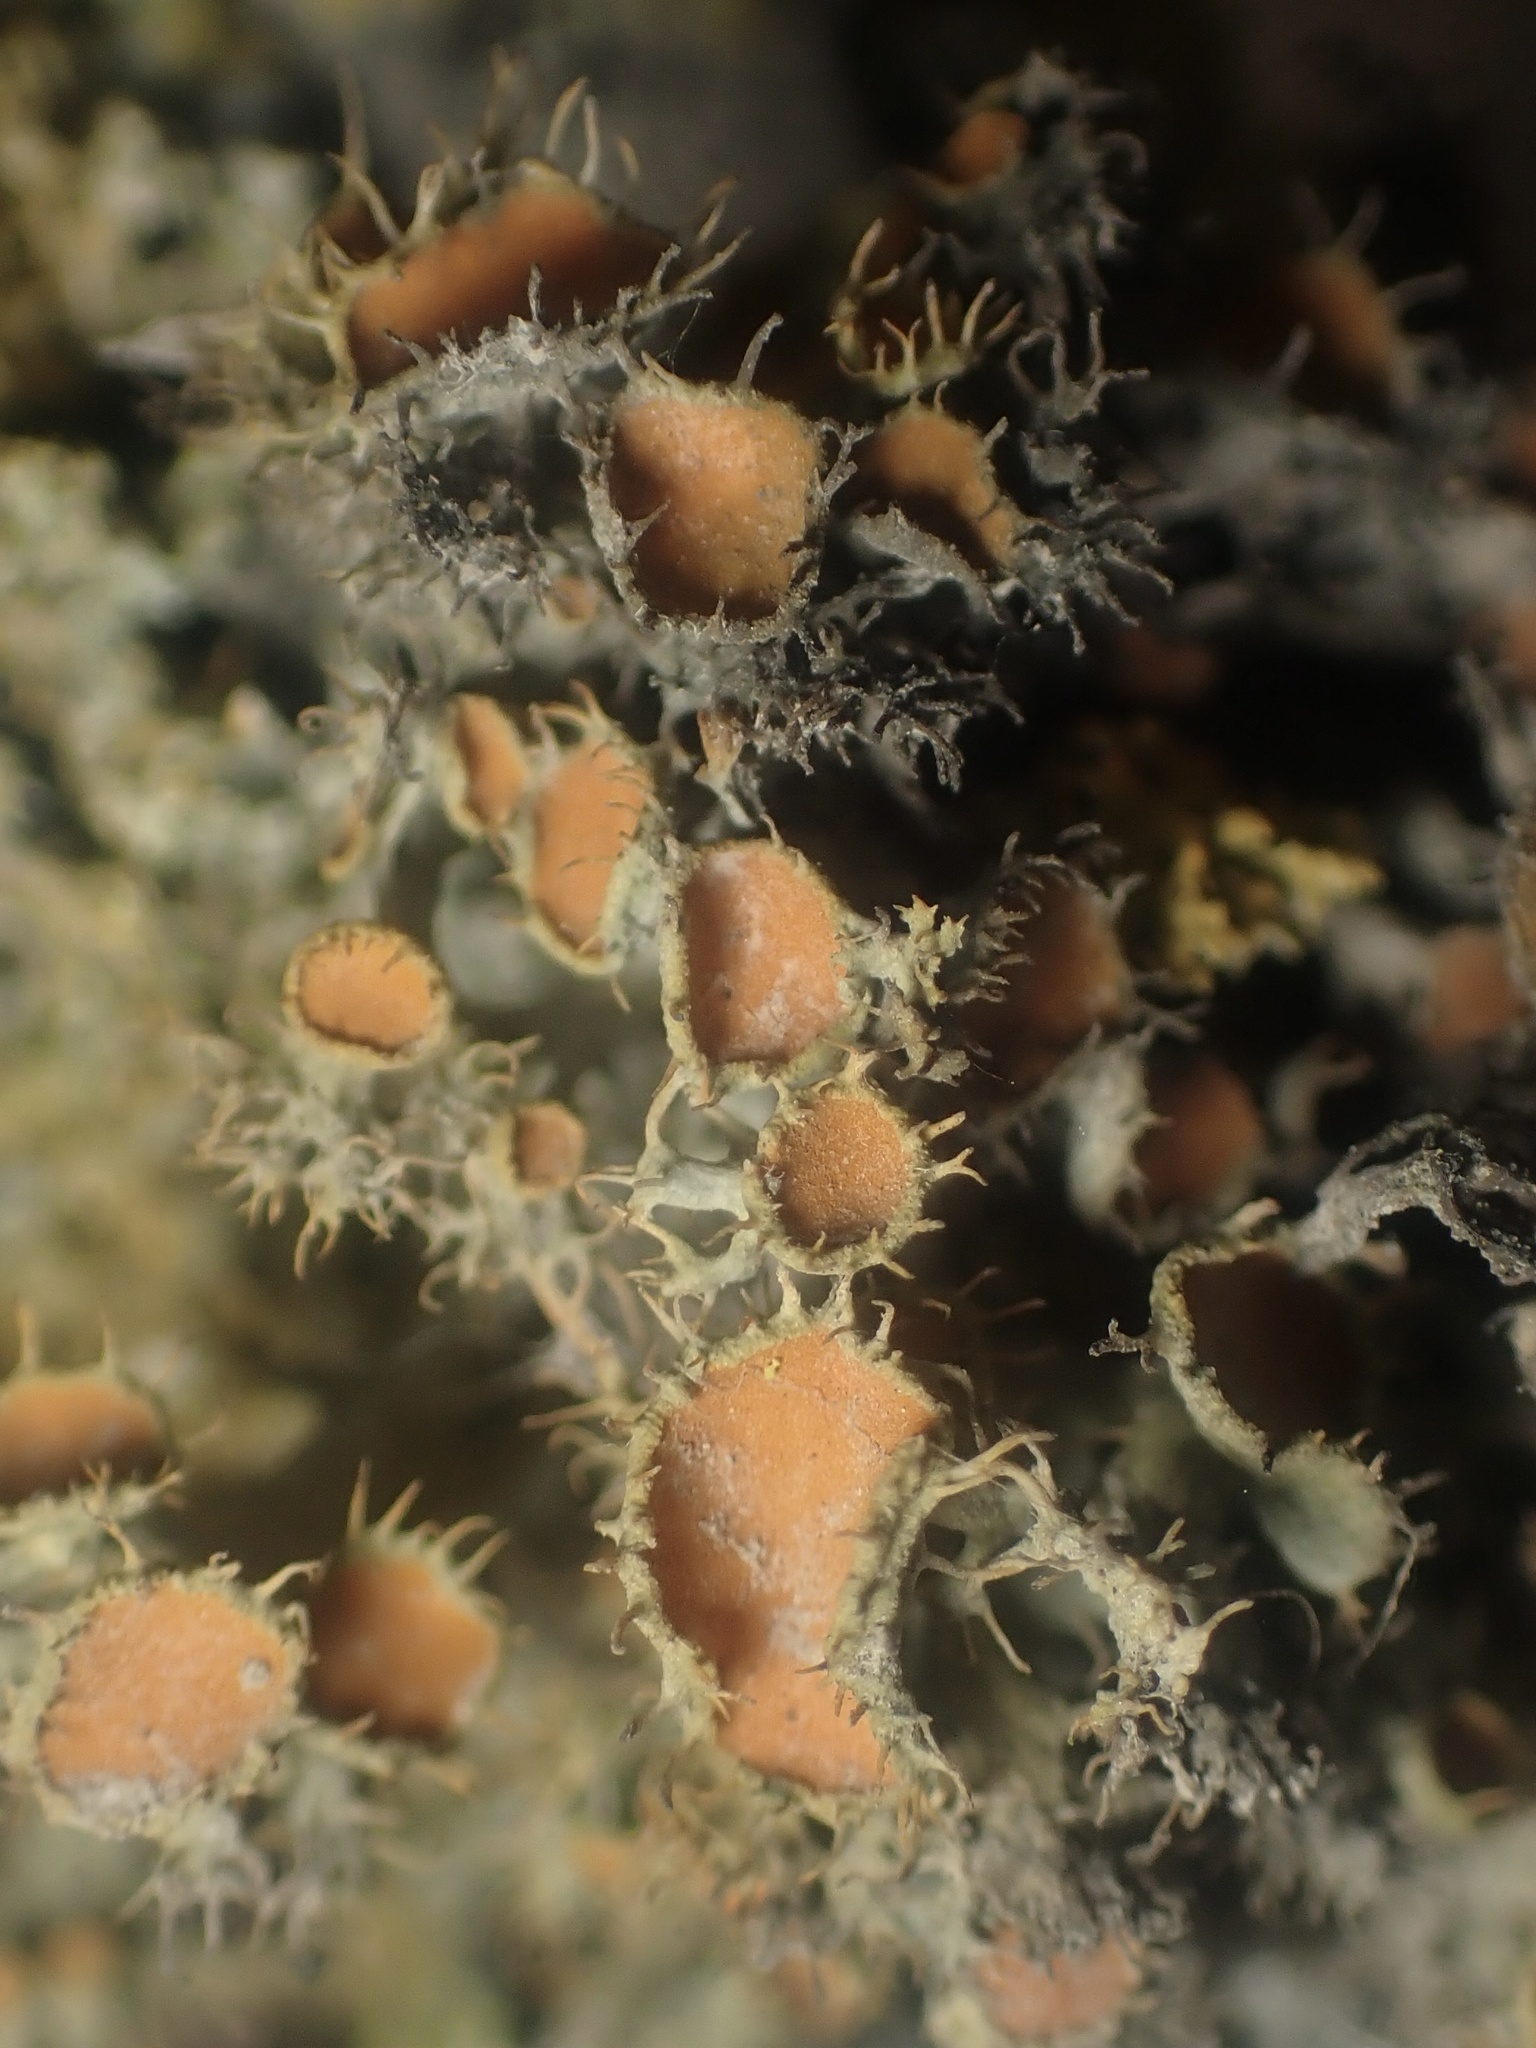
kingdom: Fungi
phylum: Ascomycota
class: Lecanoromycetes
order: Teloschistales
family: Teloschistaceae
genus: Niorma
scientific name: Niorma chrysophthalma
